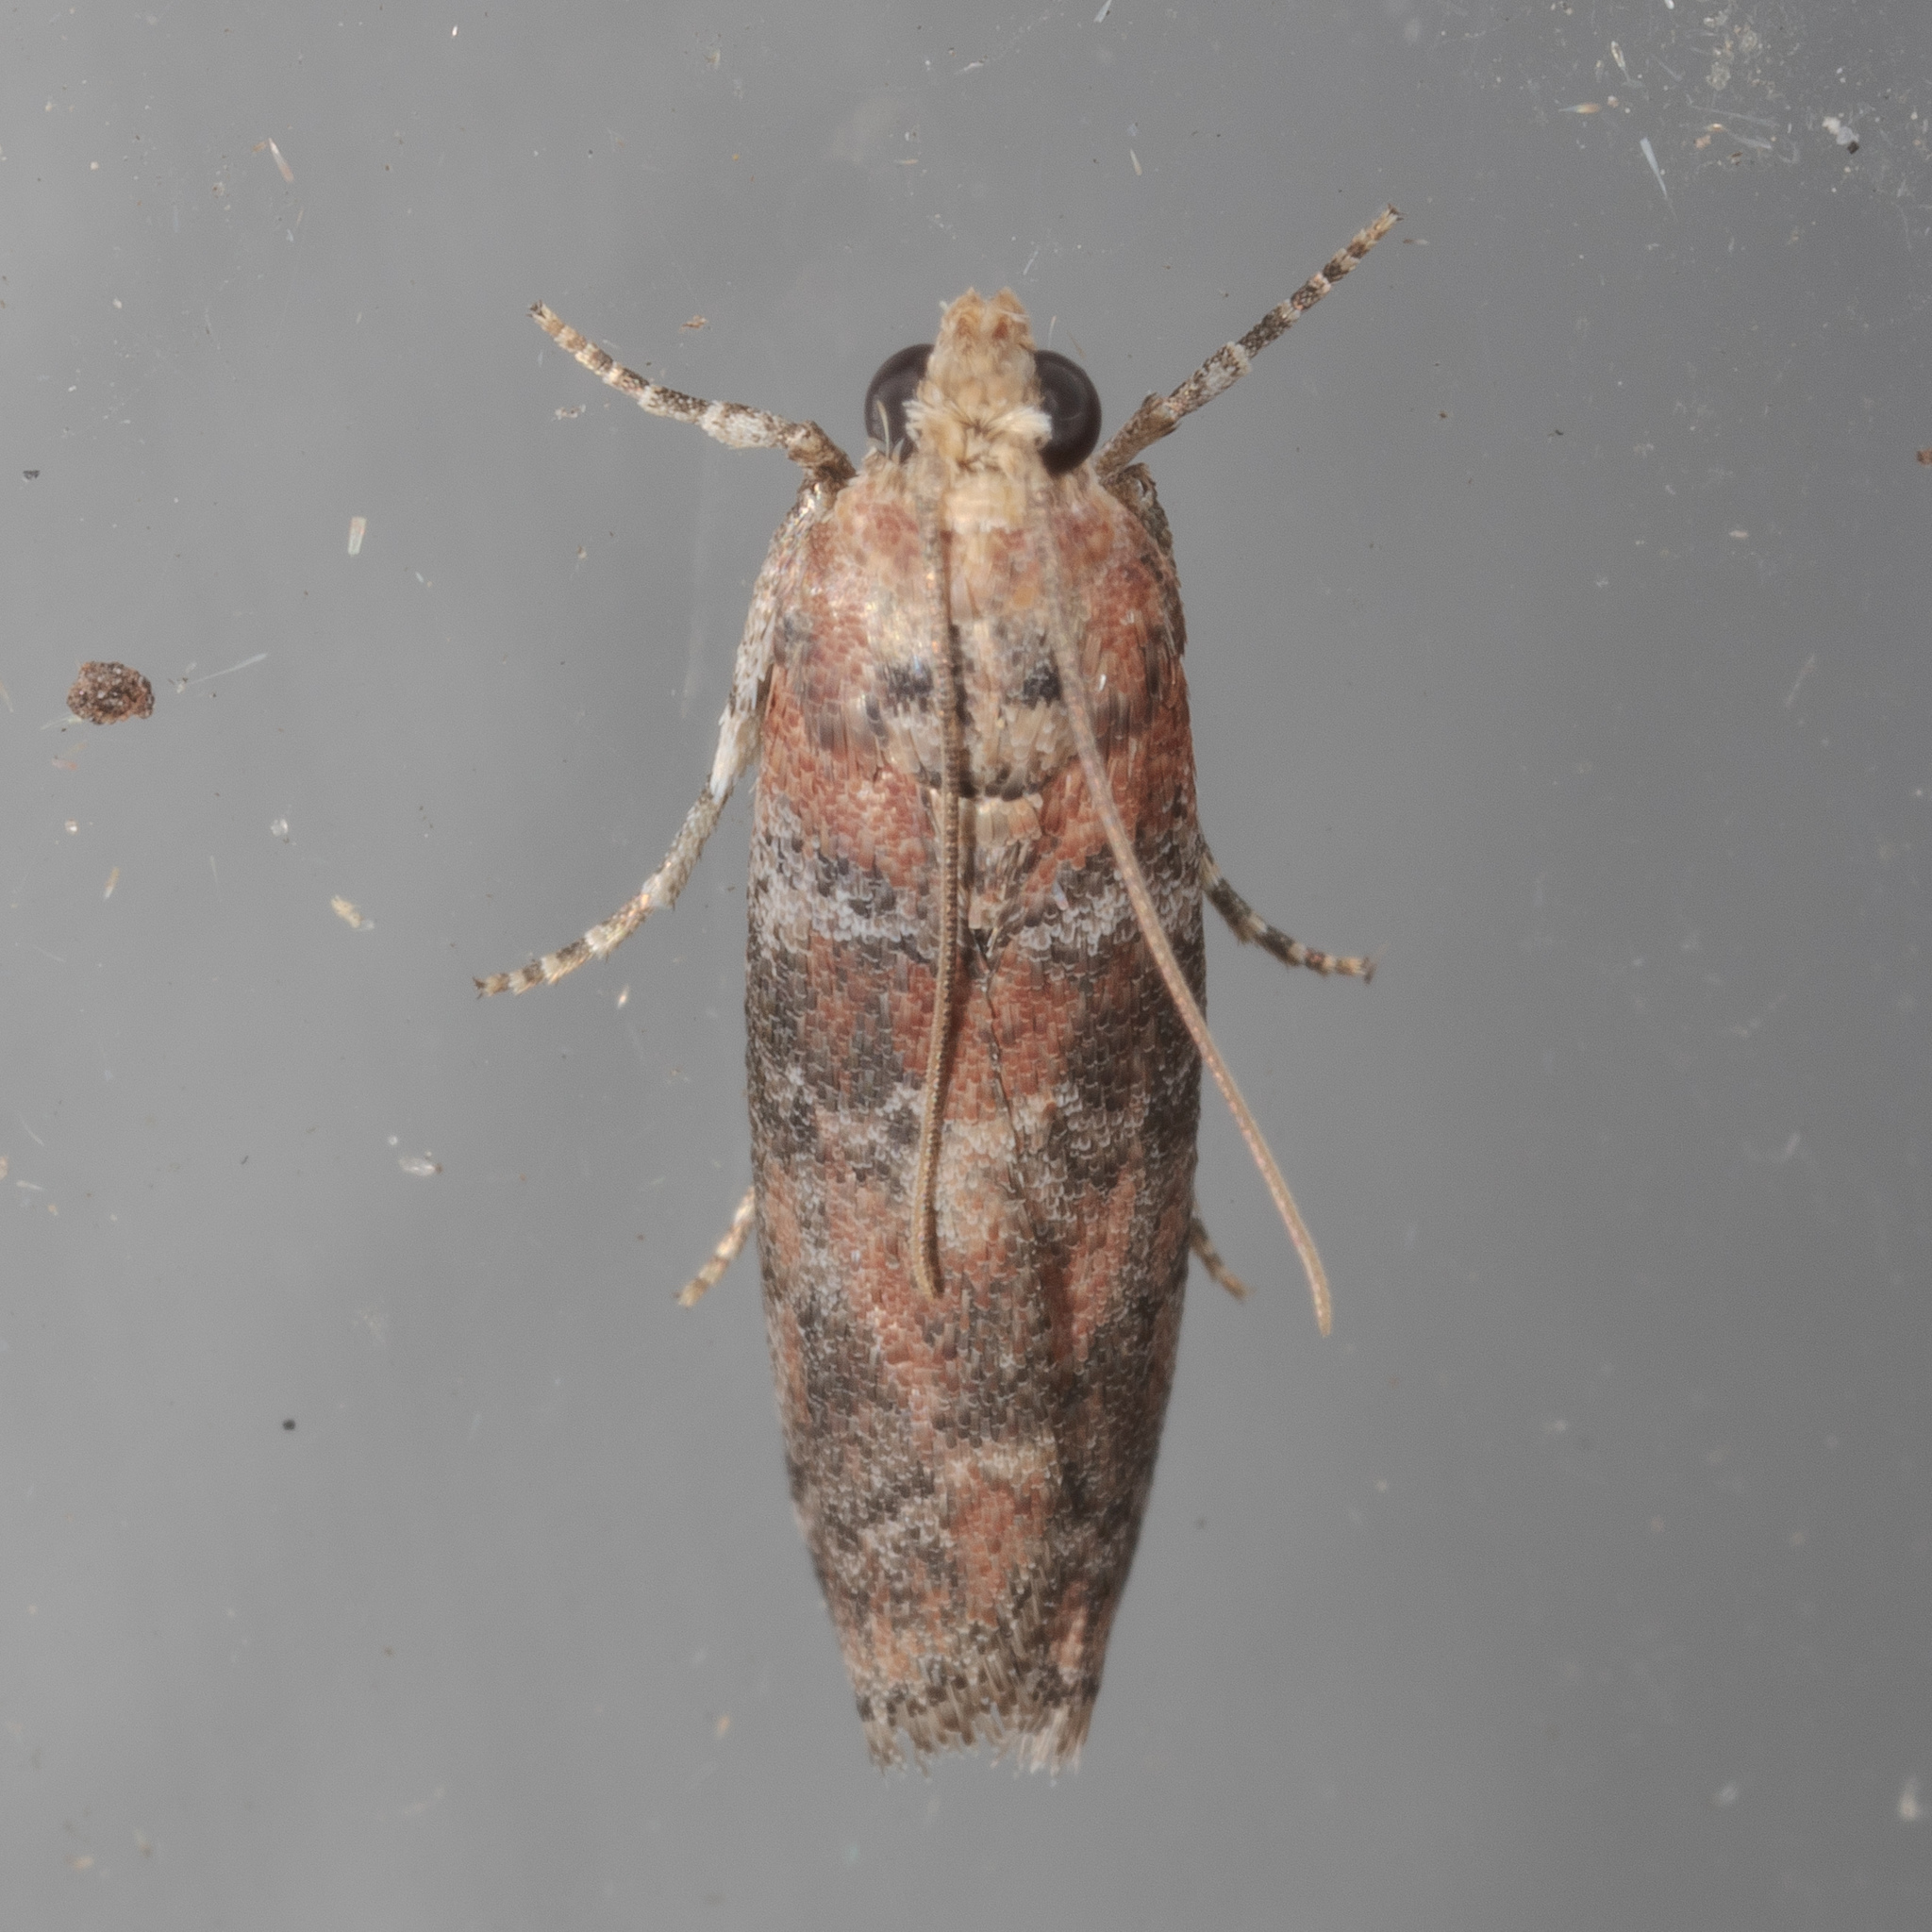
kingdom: Animalia
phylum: Arthropoda
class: Insecta
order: Lepidoptera
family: Pyralidae
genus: Sciota
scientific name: Sciota
